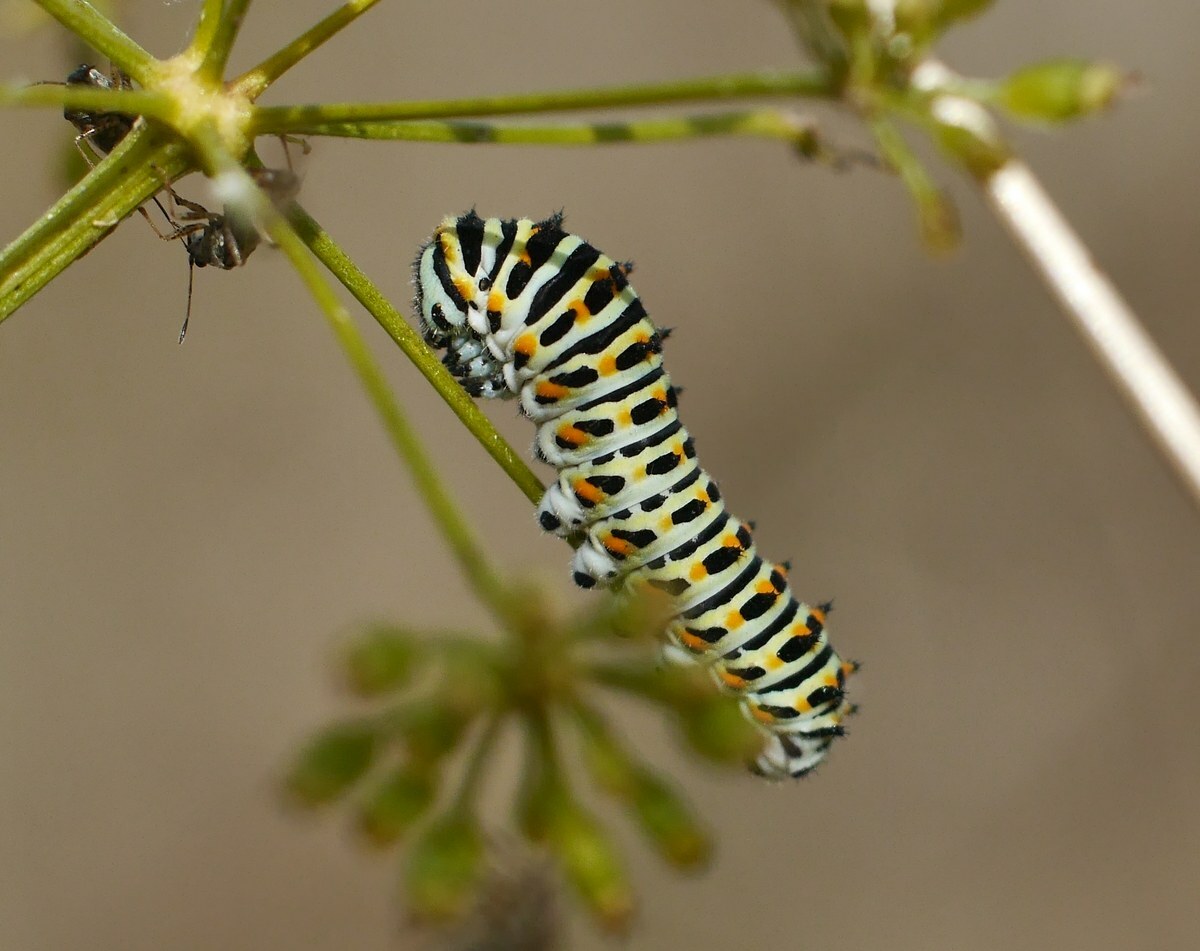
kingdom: Animalia
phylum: Arthropoda
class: Insecta
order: Lepidoptera
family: Papilionidae
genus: Papilio
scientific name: Papilio machaon
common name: Swallowtail
